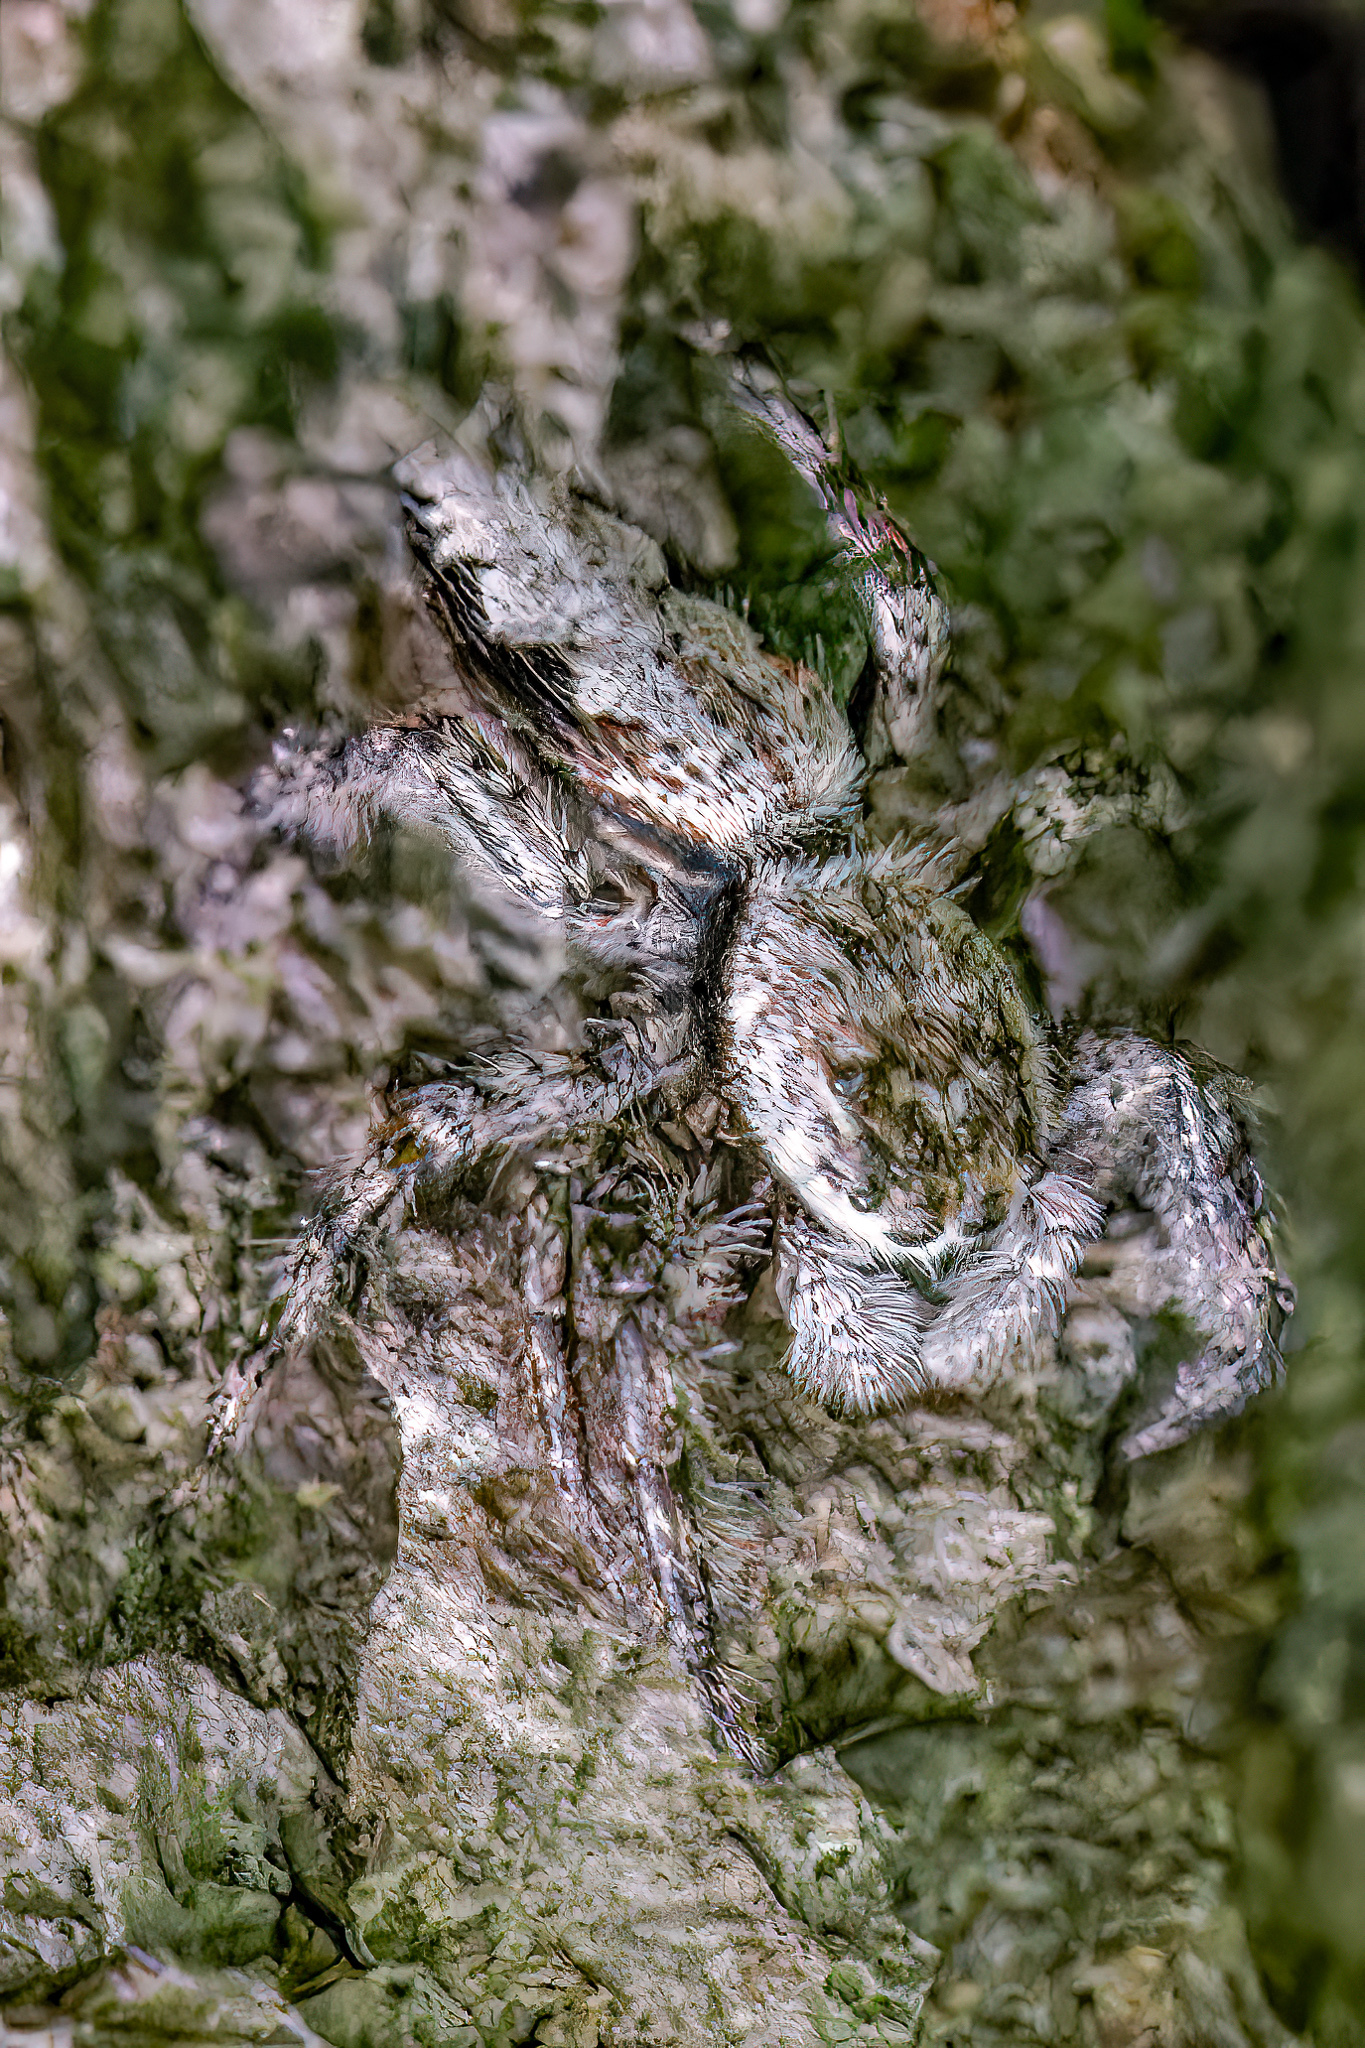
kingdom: Animalia
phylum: Arthropoda
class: Arachnida
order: Araneae
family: Salticidae
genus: Platycryptus
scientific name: Platycryptus undatus
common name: Tan jumping spider
